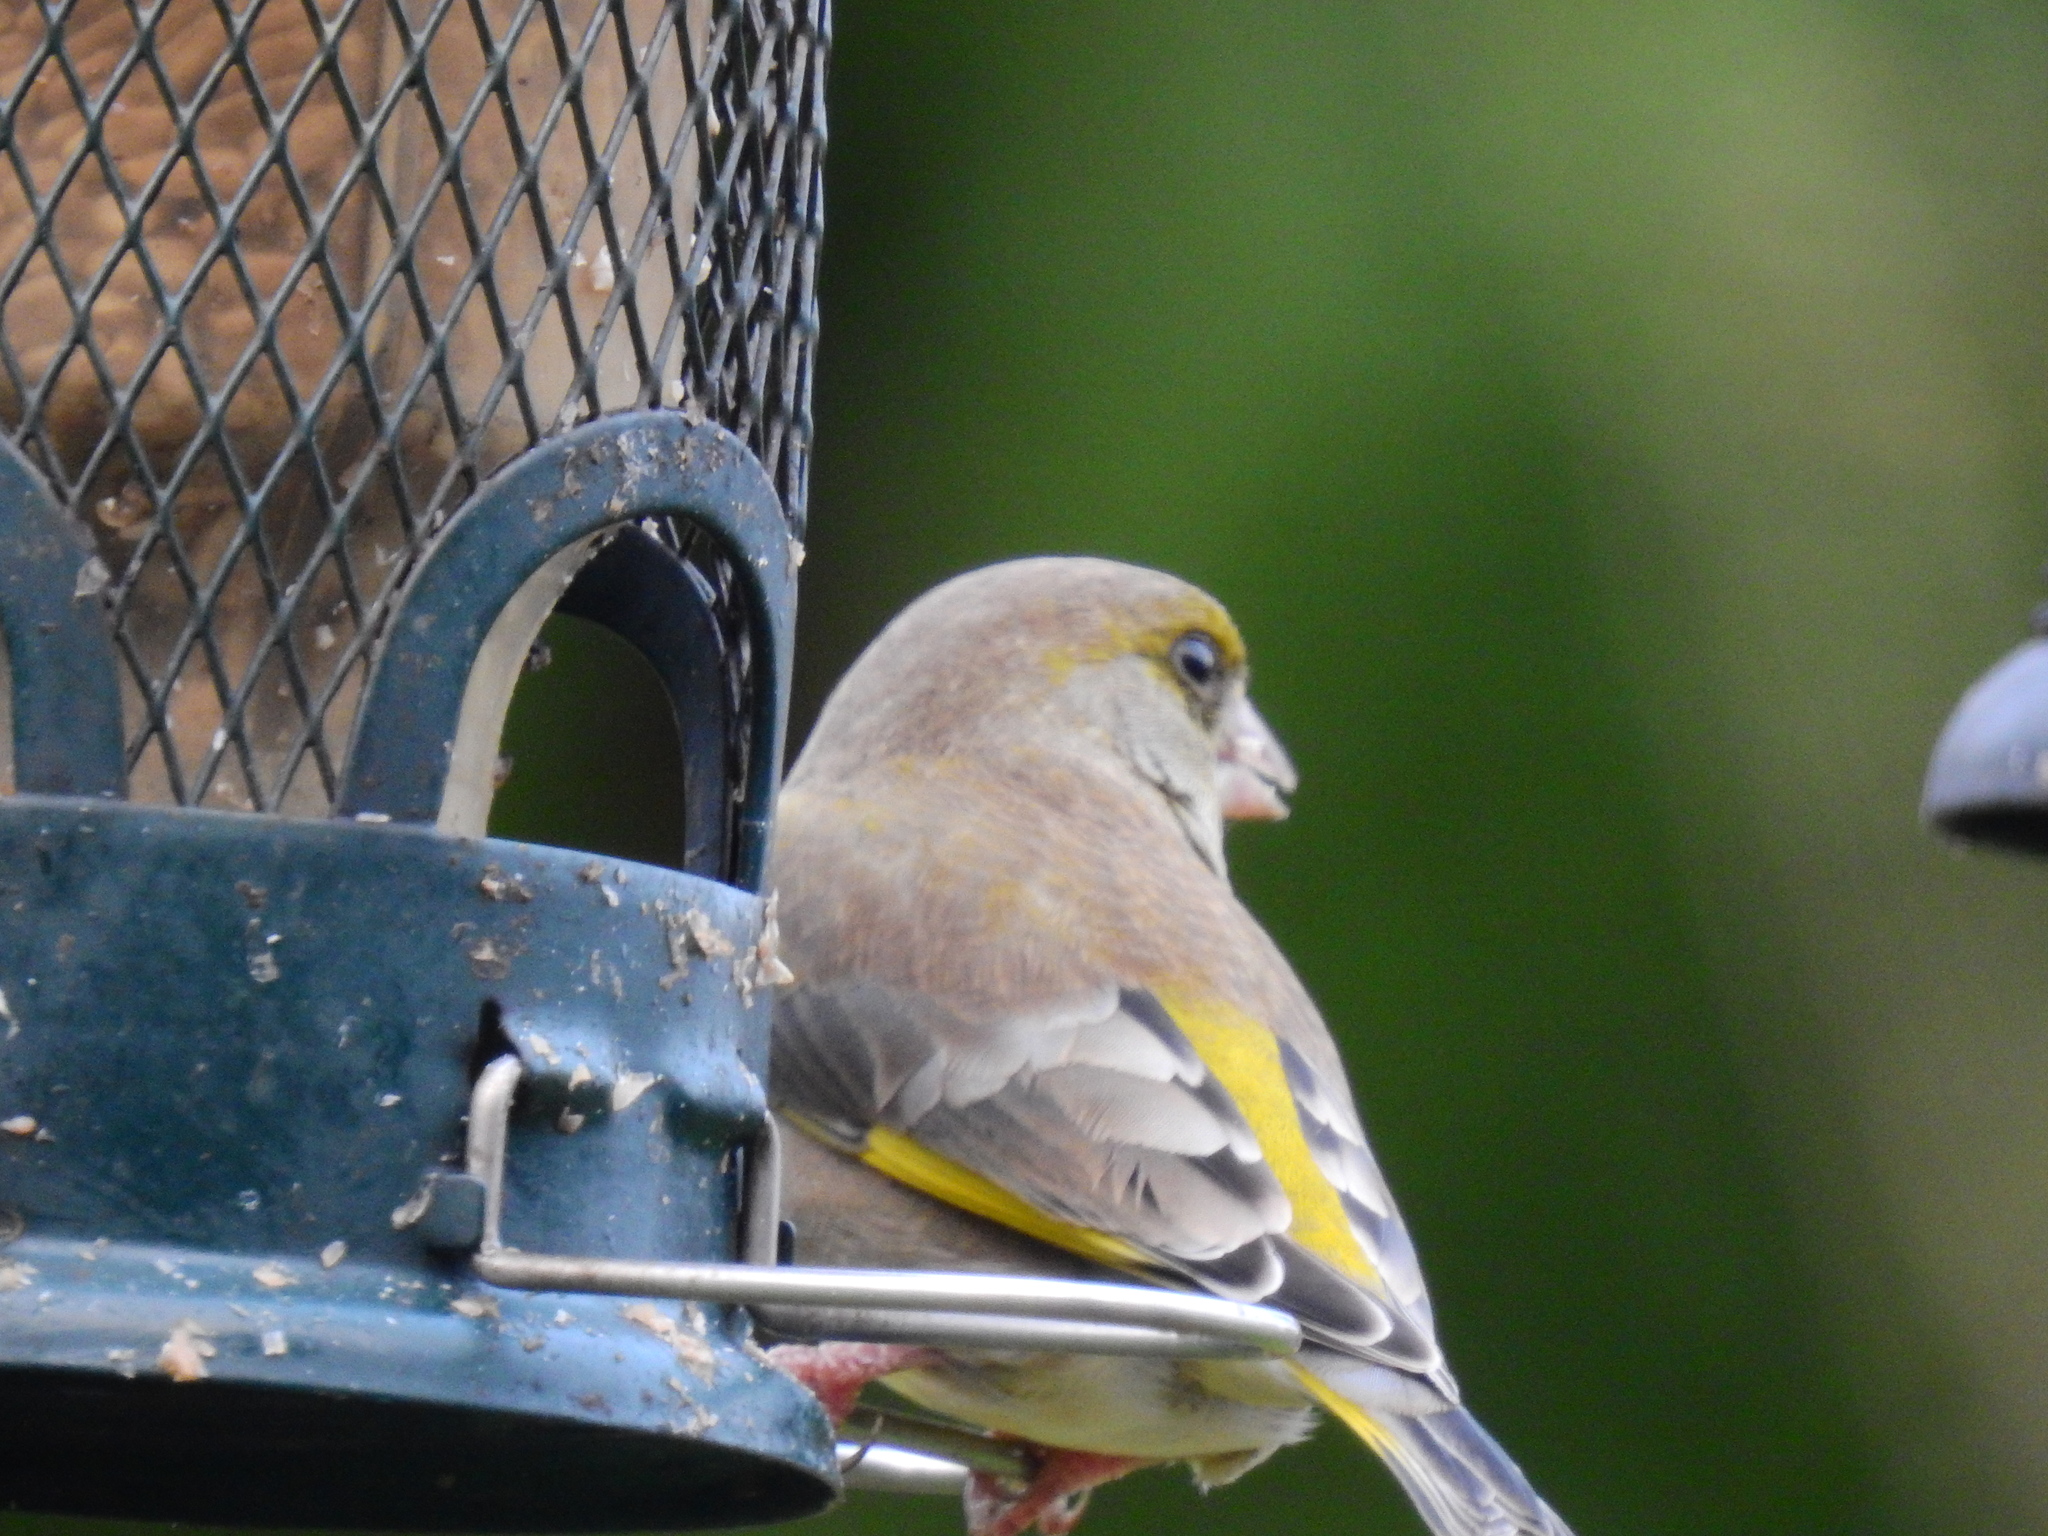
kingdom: Plantae
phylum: Tracheophyta
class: Liliopsida
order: Poales
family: Poaceae
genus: Chloris
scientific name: Chloris chloris
